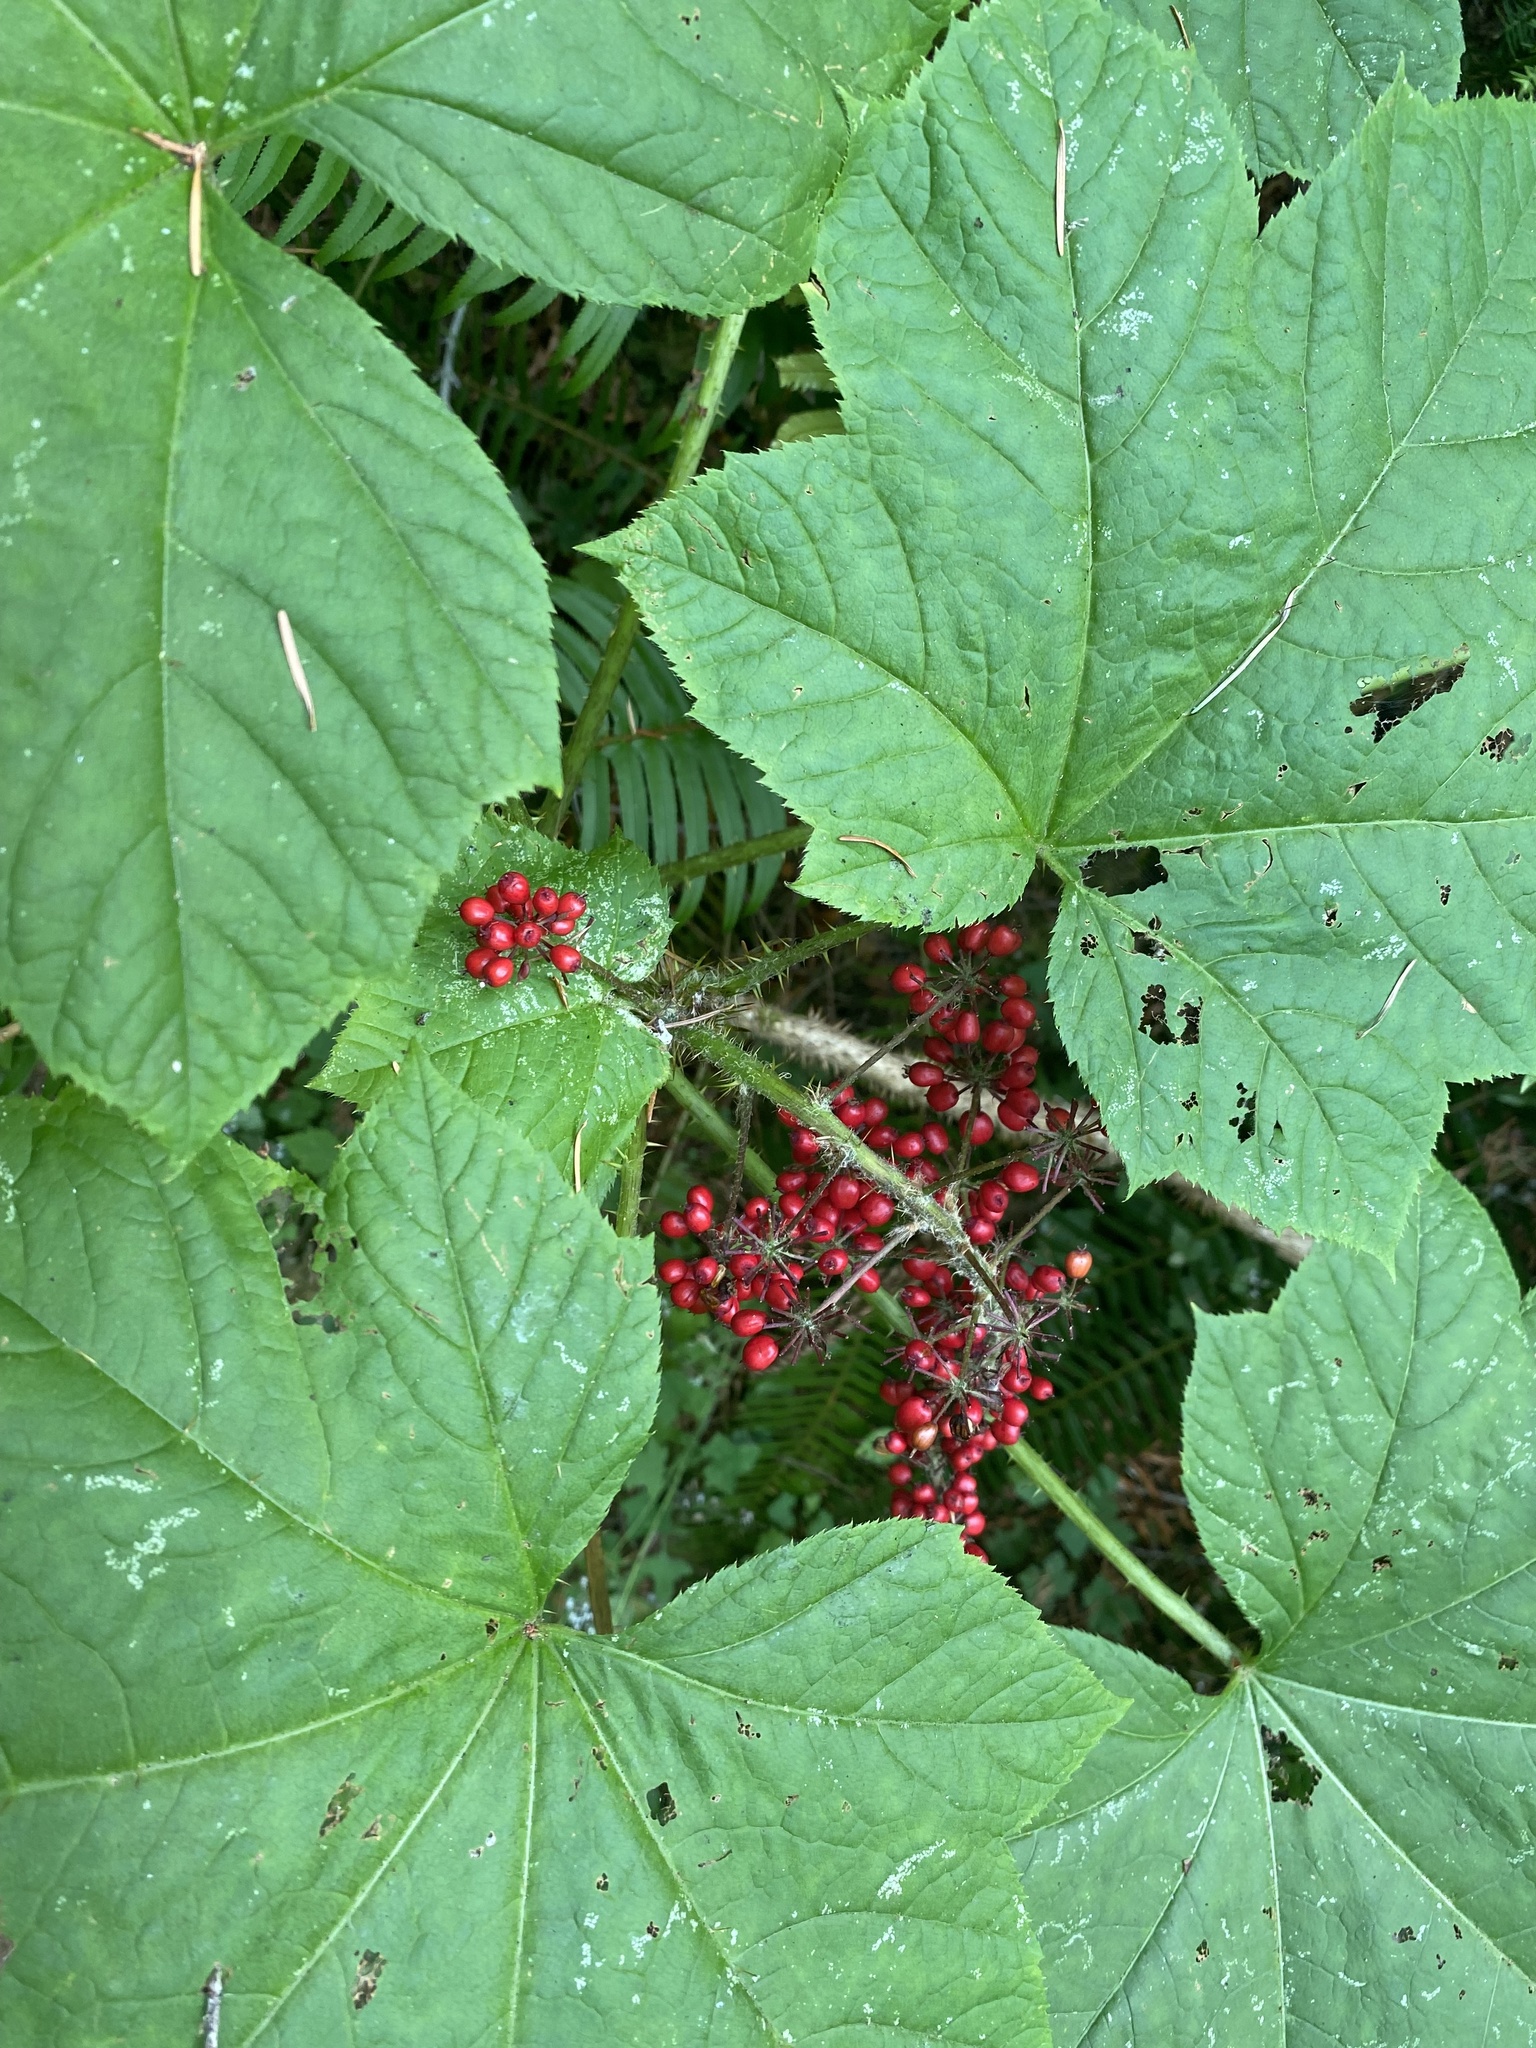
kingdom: Plantae
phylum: Tracheophyta
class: Magnoliopsida
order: Apiales
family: Araliaceae
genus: Oplopanax
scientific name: Oplopanax horridus
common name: Devil's walking-stick
